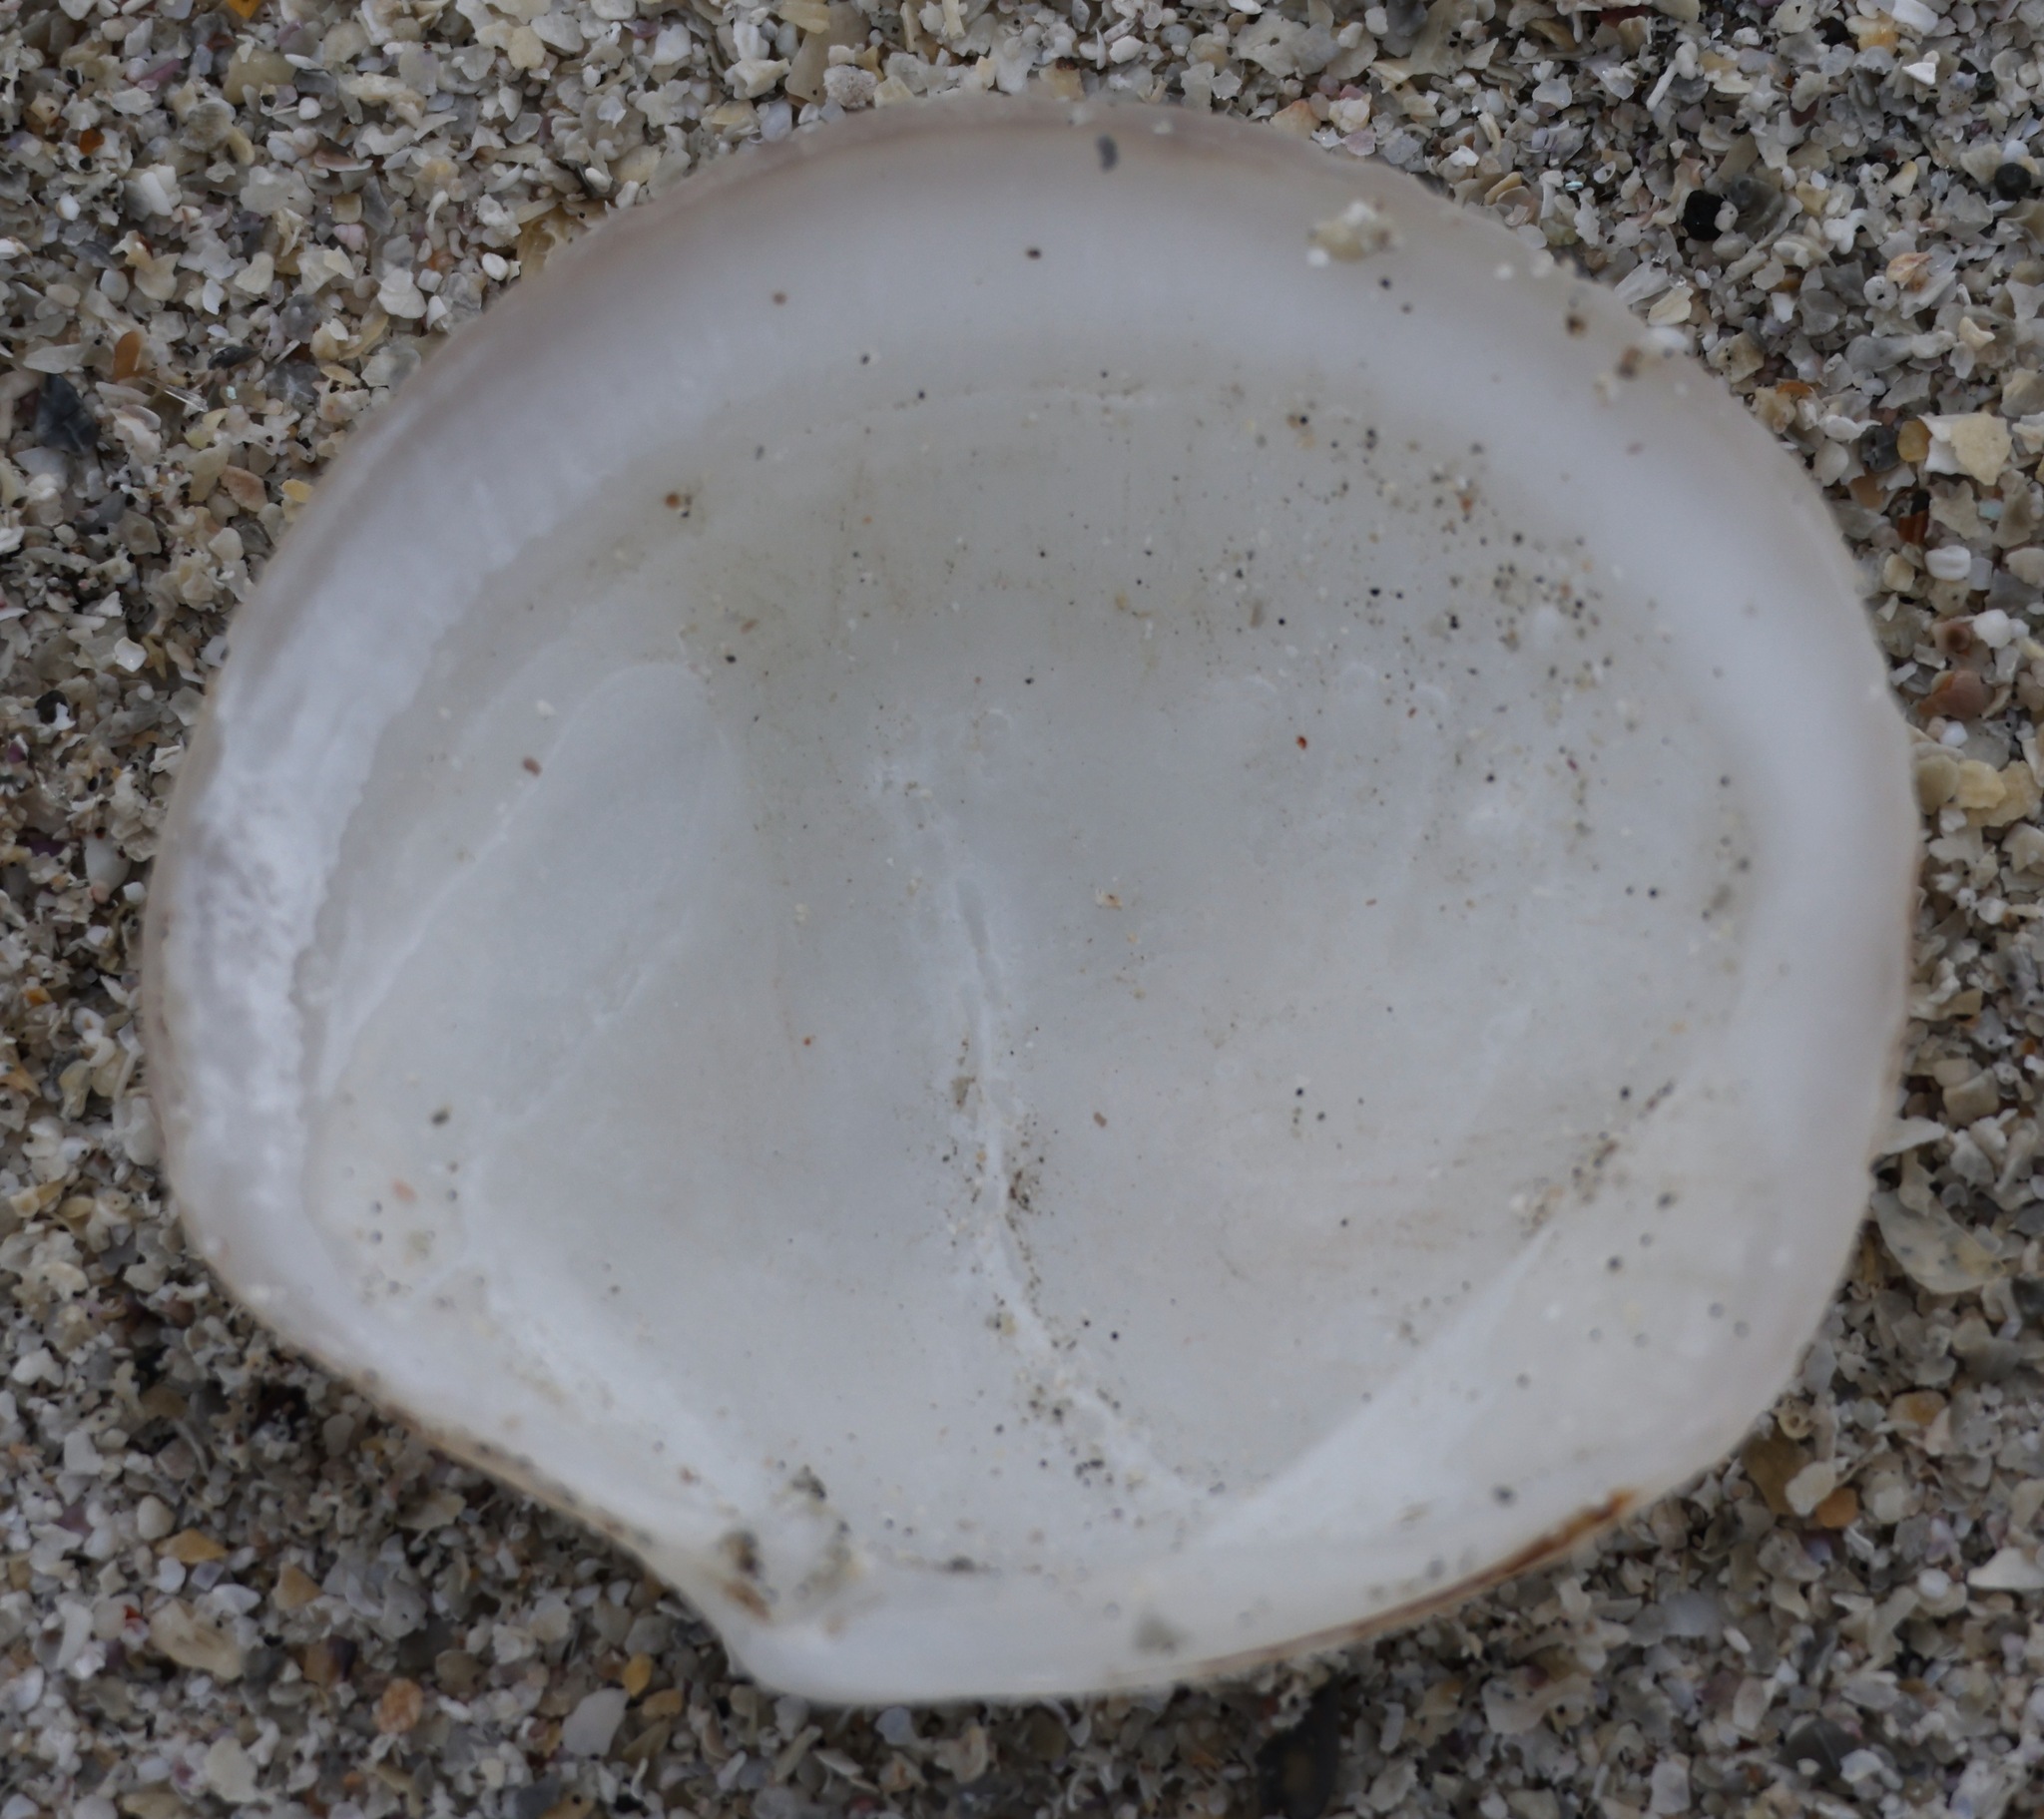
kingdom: Animalia
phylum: Mollusca
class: Bivalvia
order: Lucinida
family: Lucinidae
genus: Lucinoma
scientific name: Lucinoma borealis
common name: Northern lucina
